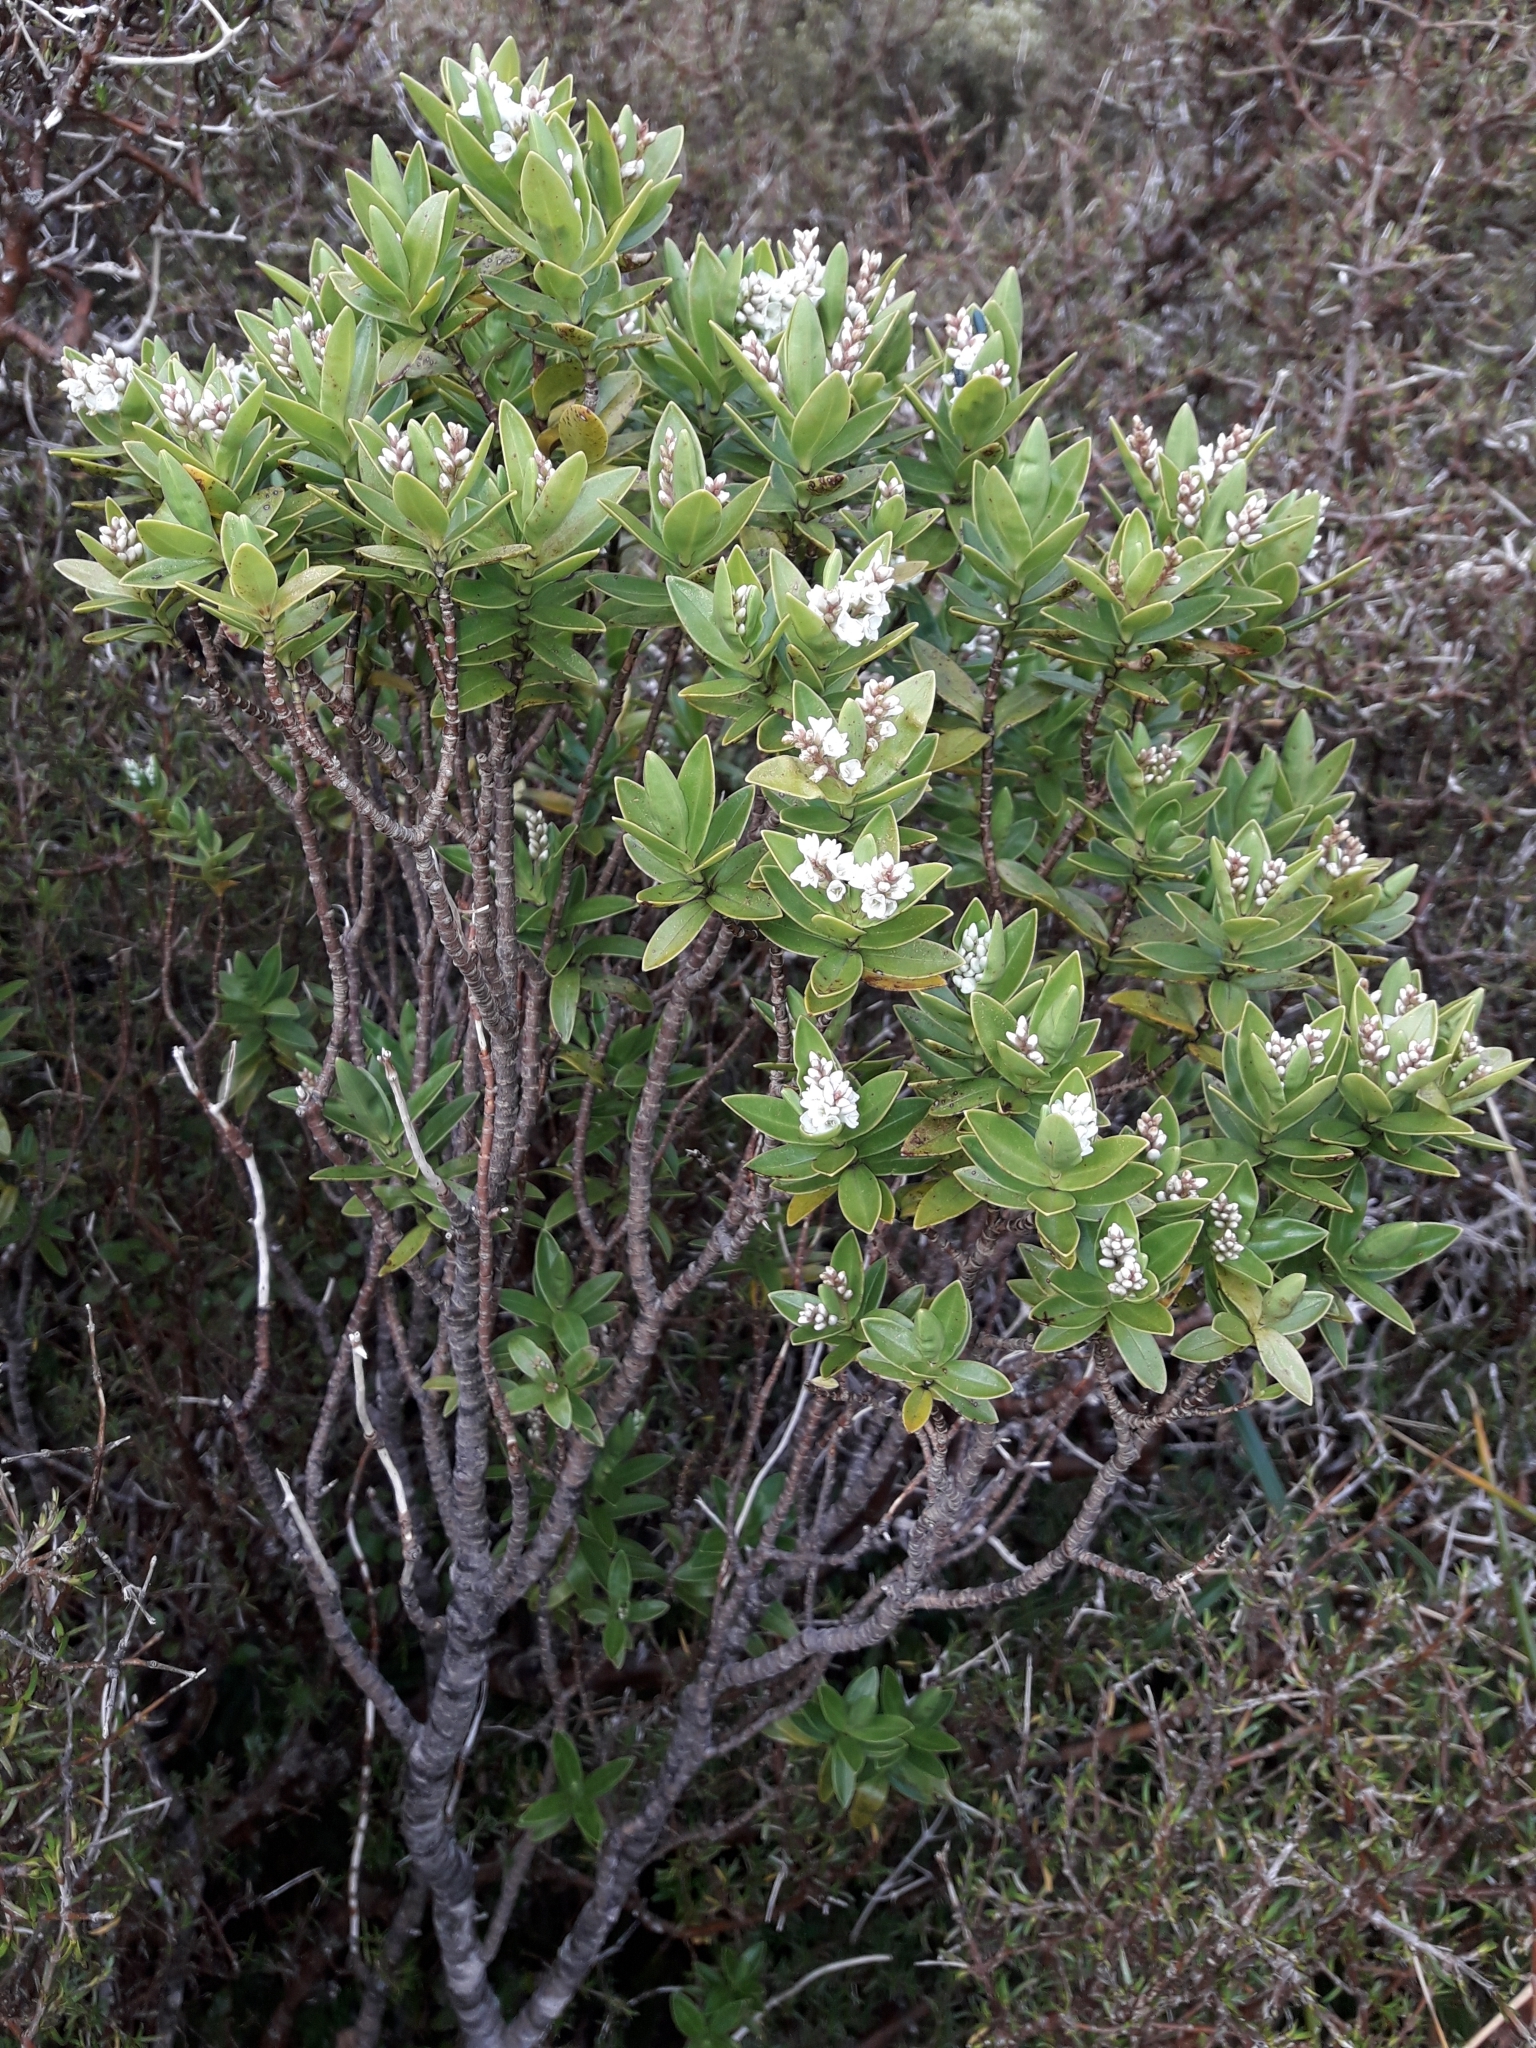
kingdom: Plantae
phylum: Tracheophyta
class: Magnoliopsida
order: Lamiales
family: Plantaginaceae
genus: Veronica
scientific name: Veronica subalpina
